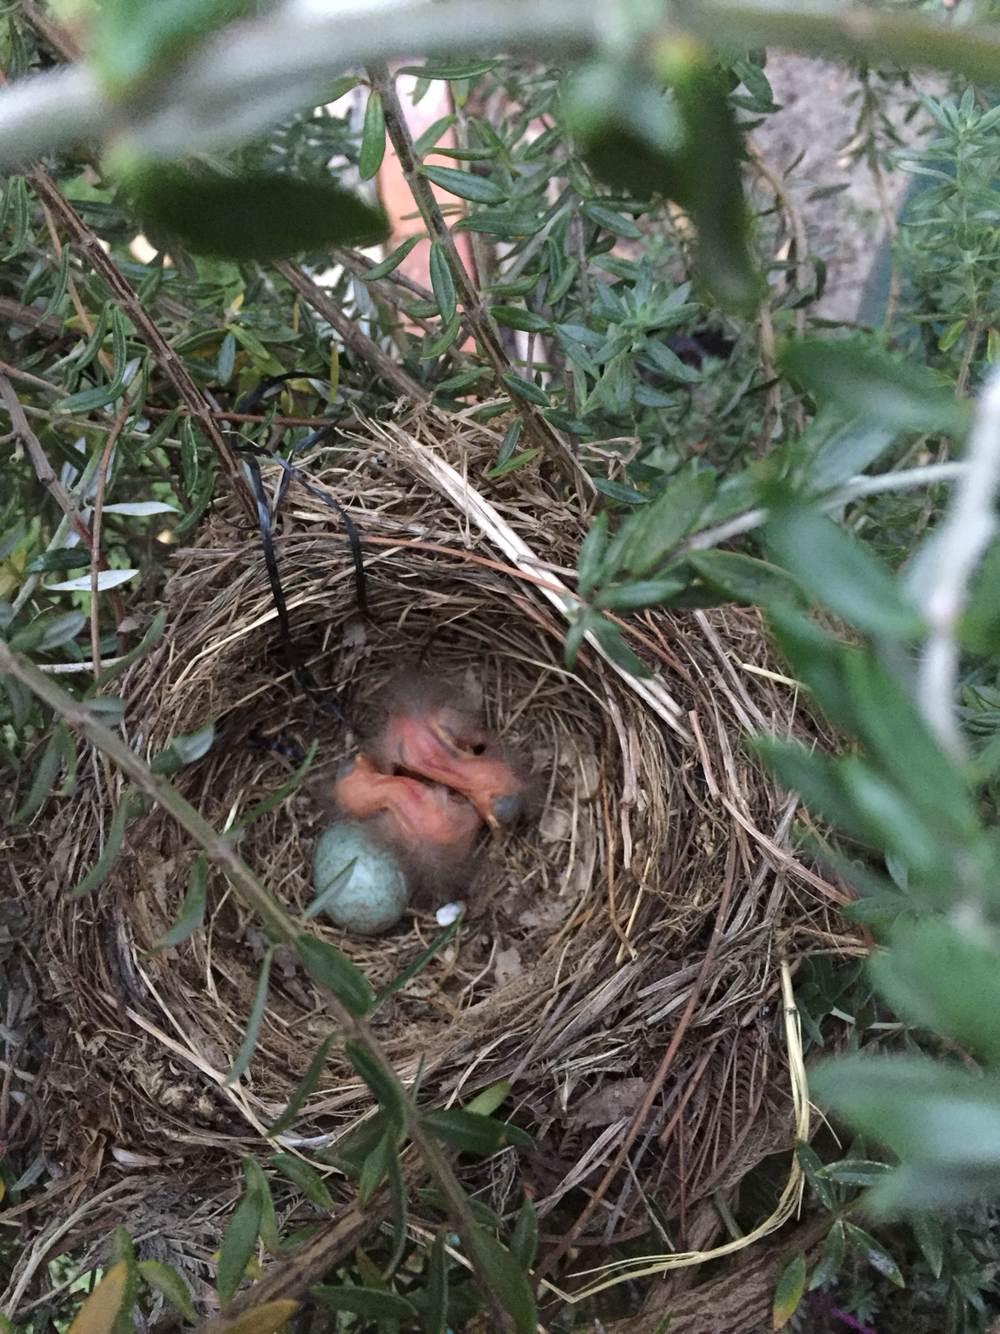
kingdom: Animalia
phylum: Chordata
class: Aves
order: Passeriformes
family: Turdidae
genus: Turdus
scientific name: Turdus merula
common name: Common blackbird
